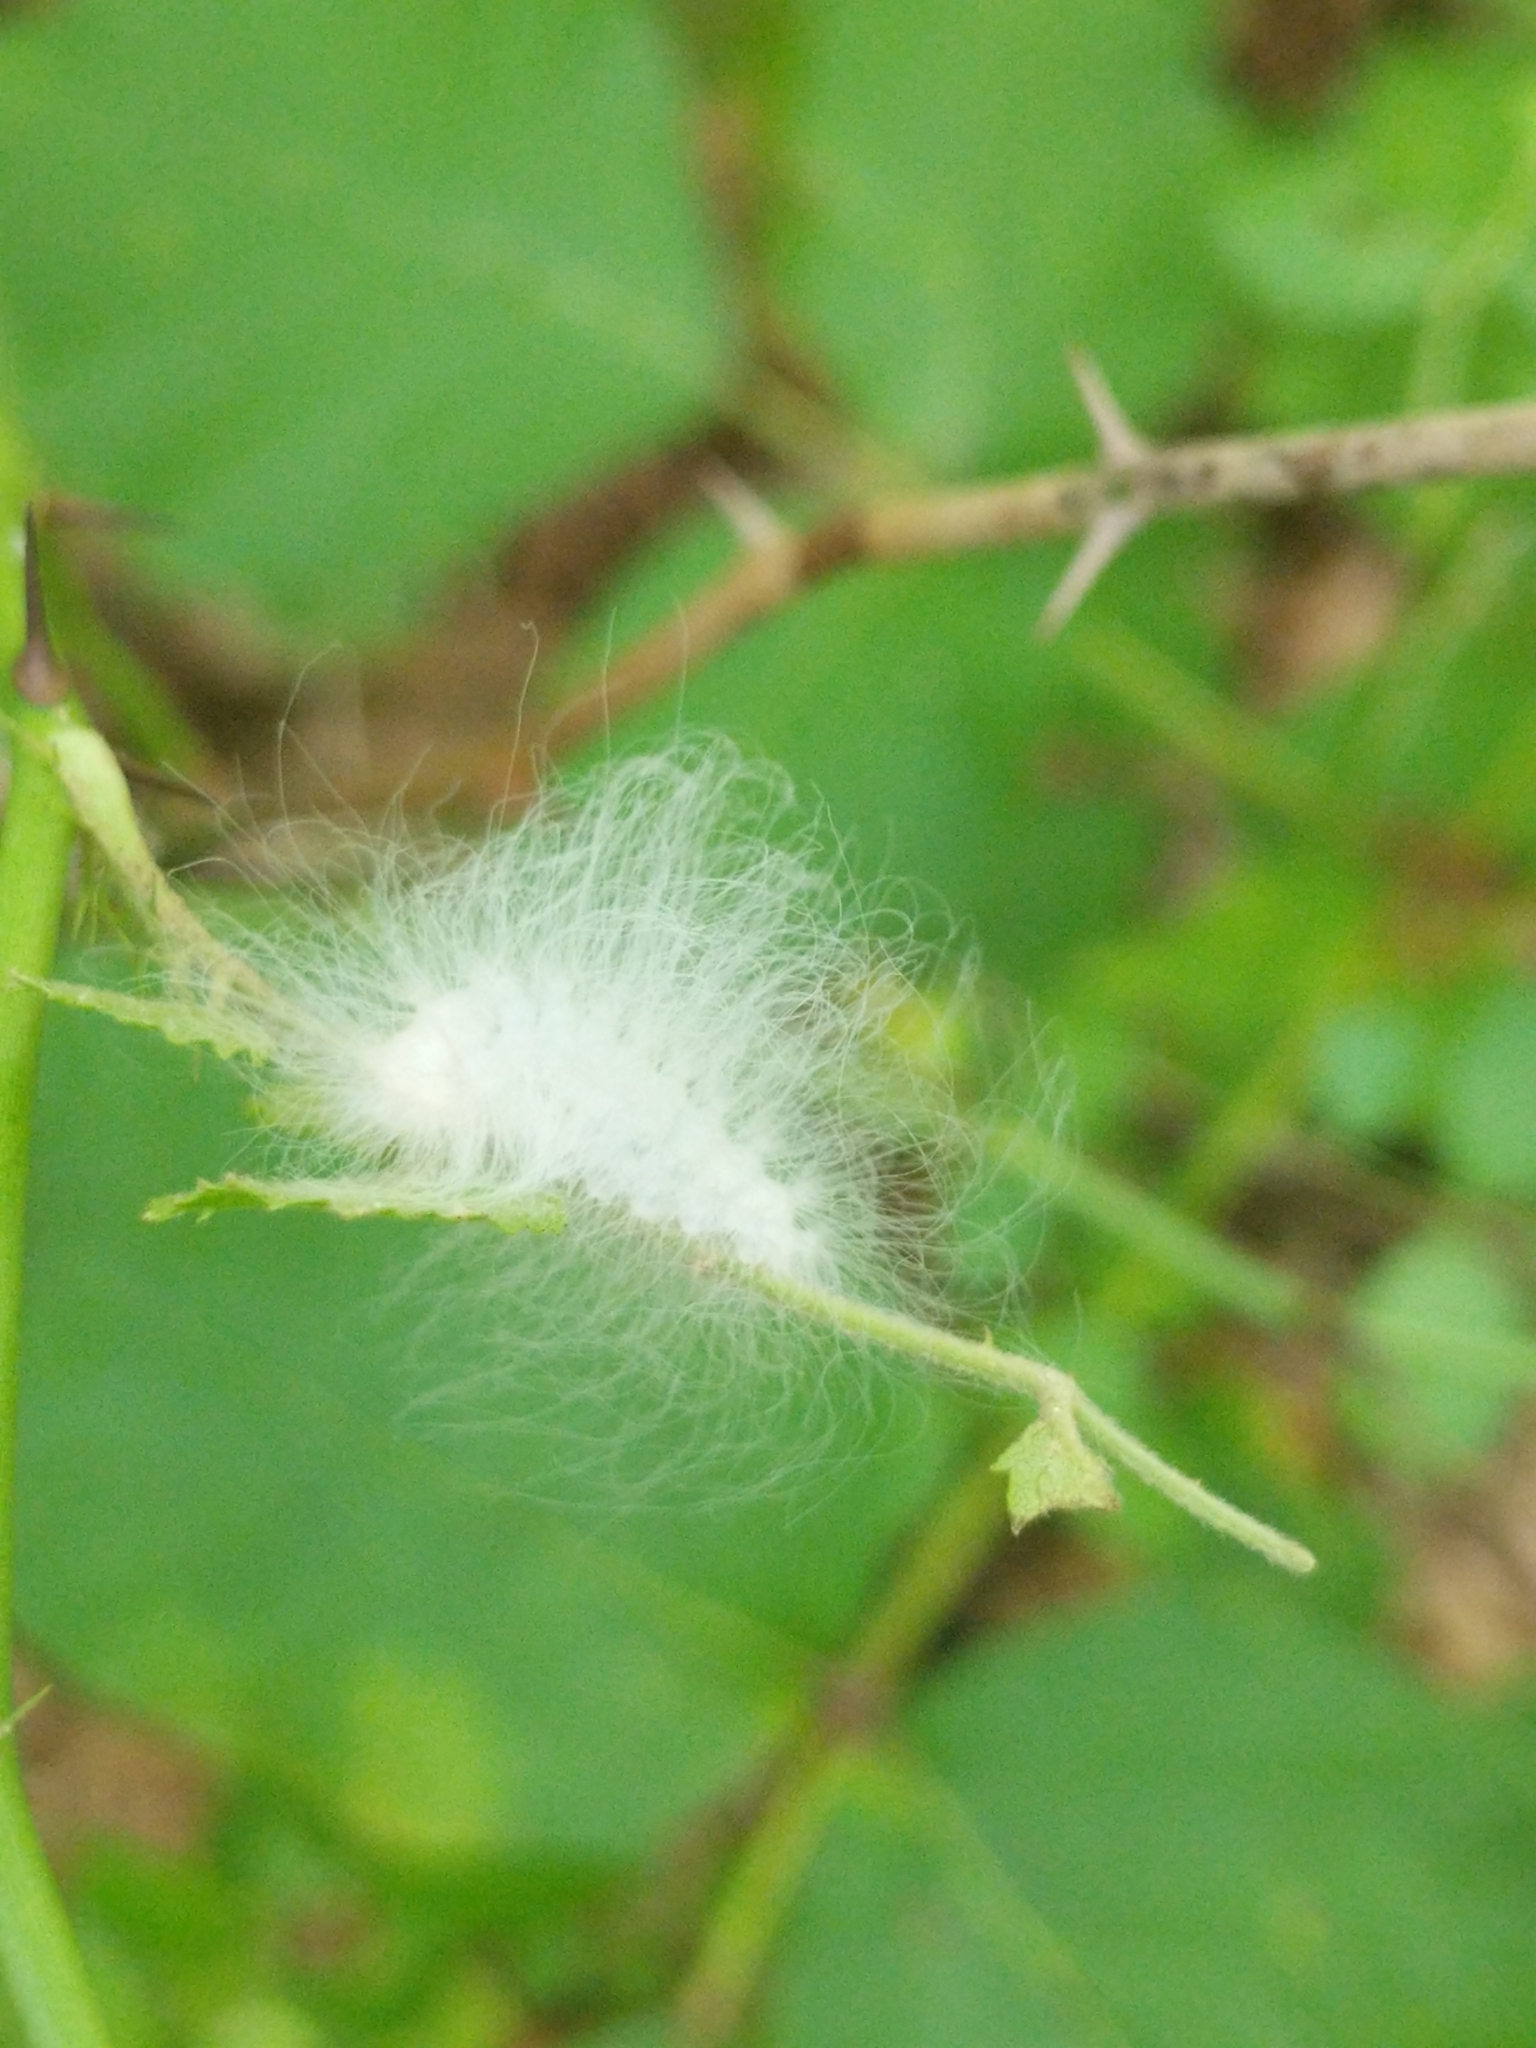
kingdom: Animalia
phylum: Arthropoda
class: Insecta
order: Lepidoptera
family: Megalopygidae
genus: Megalopyge
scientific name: Megalopyge crispata
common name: Black-waved flannel moth
